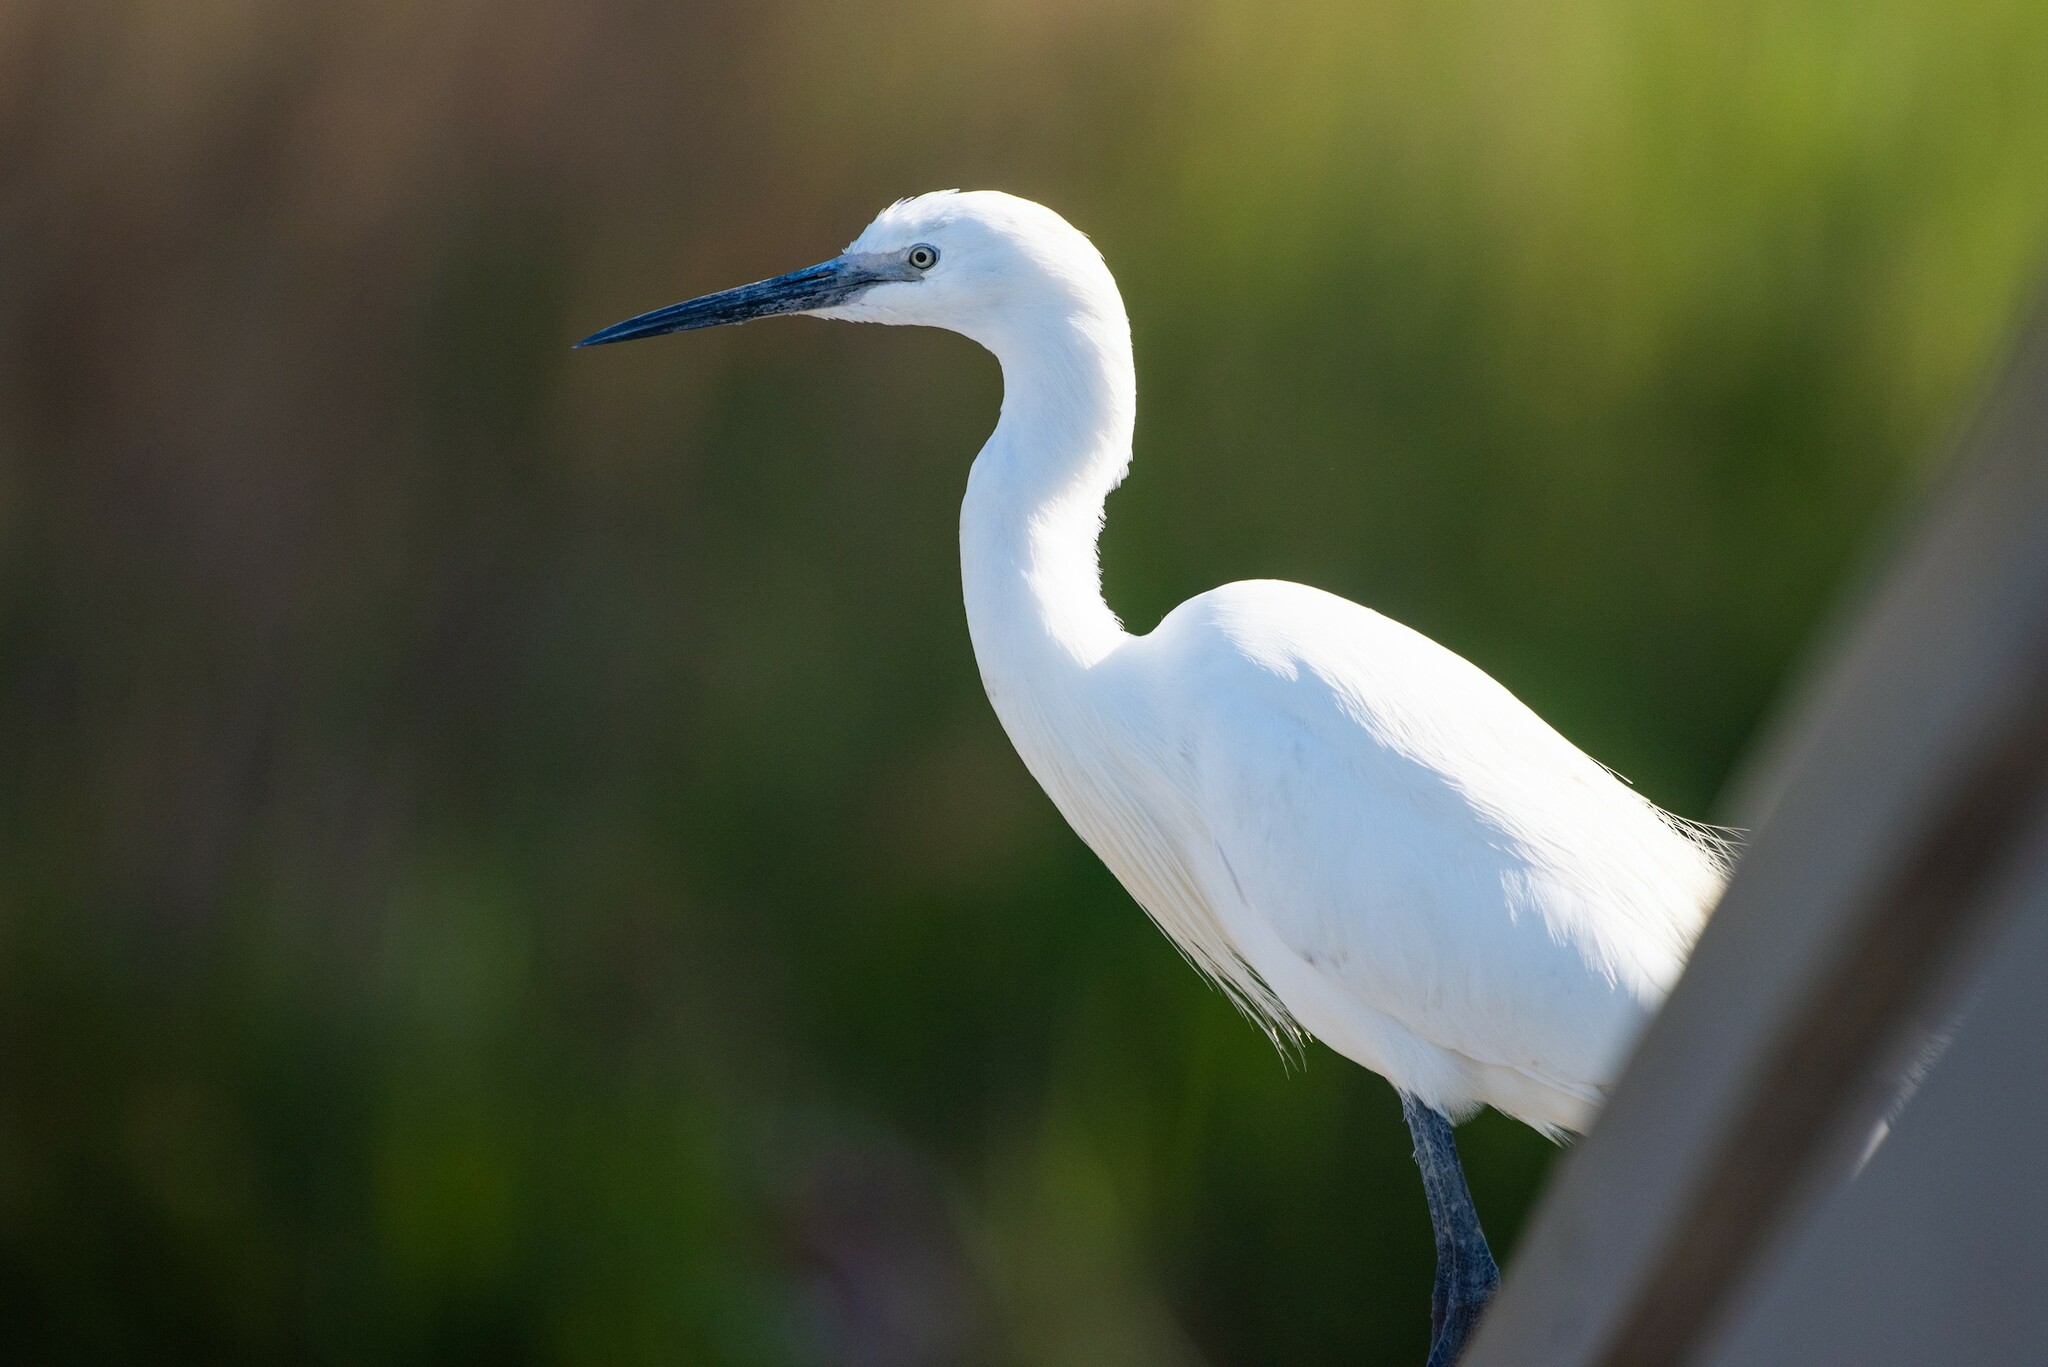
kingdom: Animalia
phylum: Chordata
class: Aves
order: Pelecaniformes
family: Ardeidae
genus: Egretta
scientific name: Egretta garzetta
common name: Little egret
